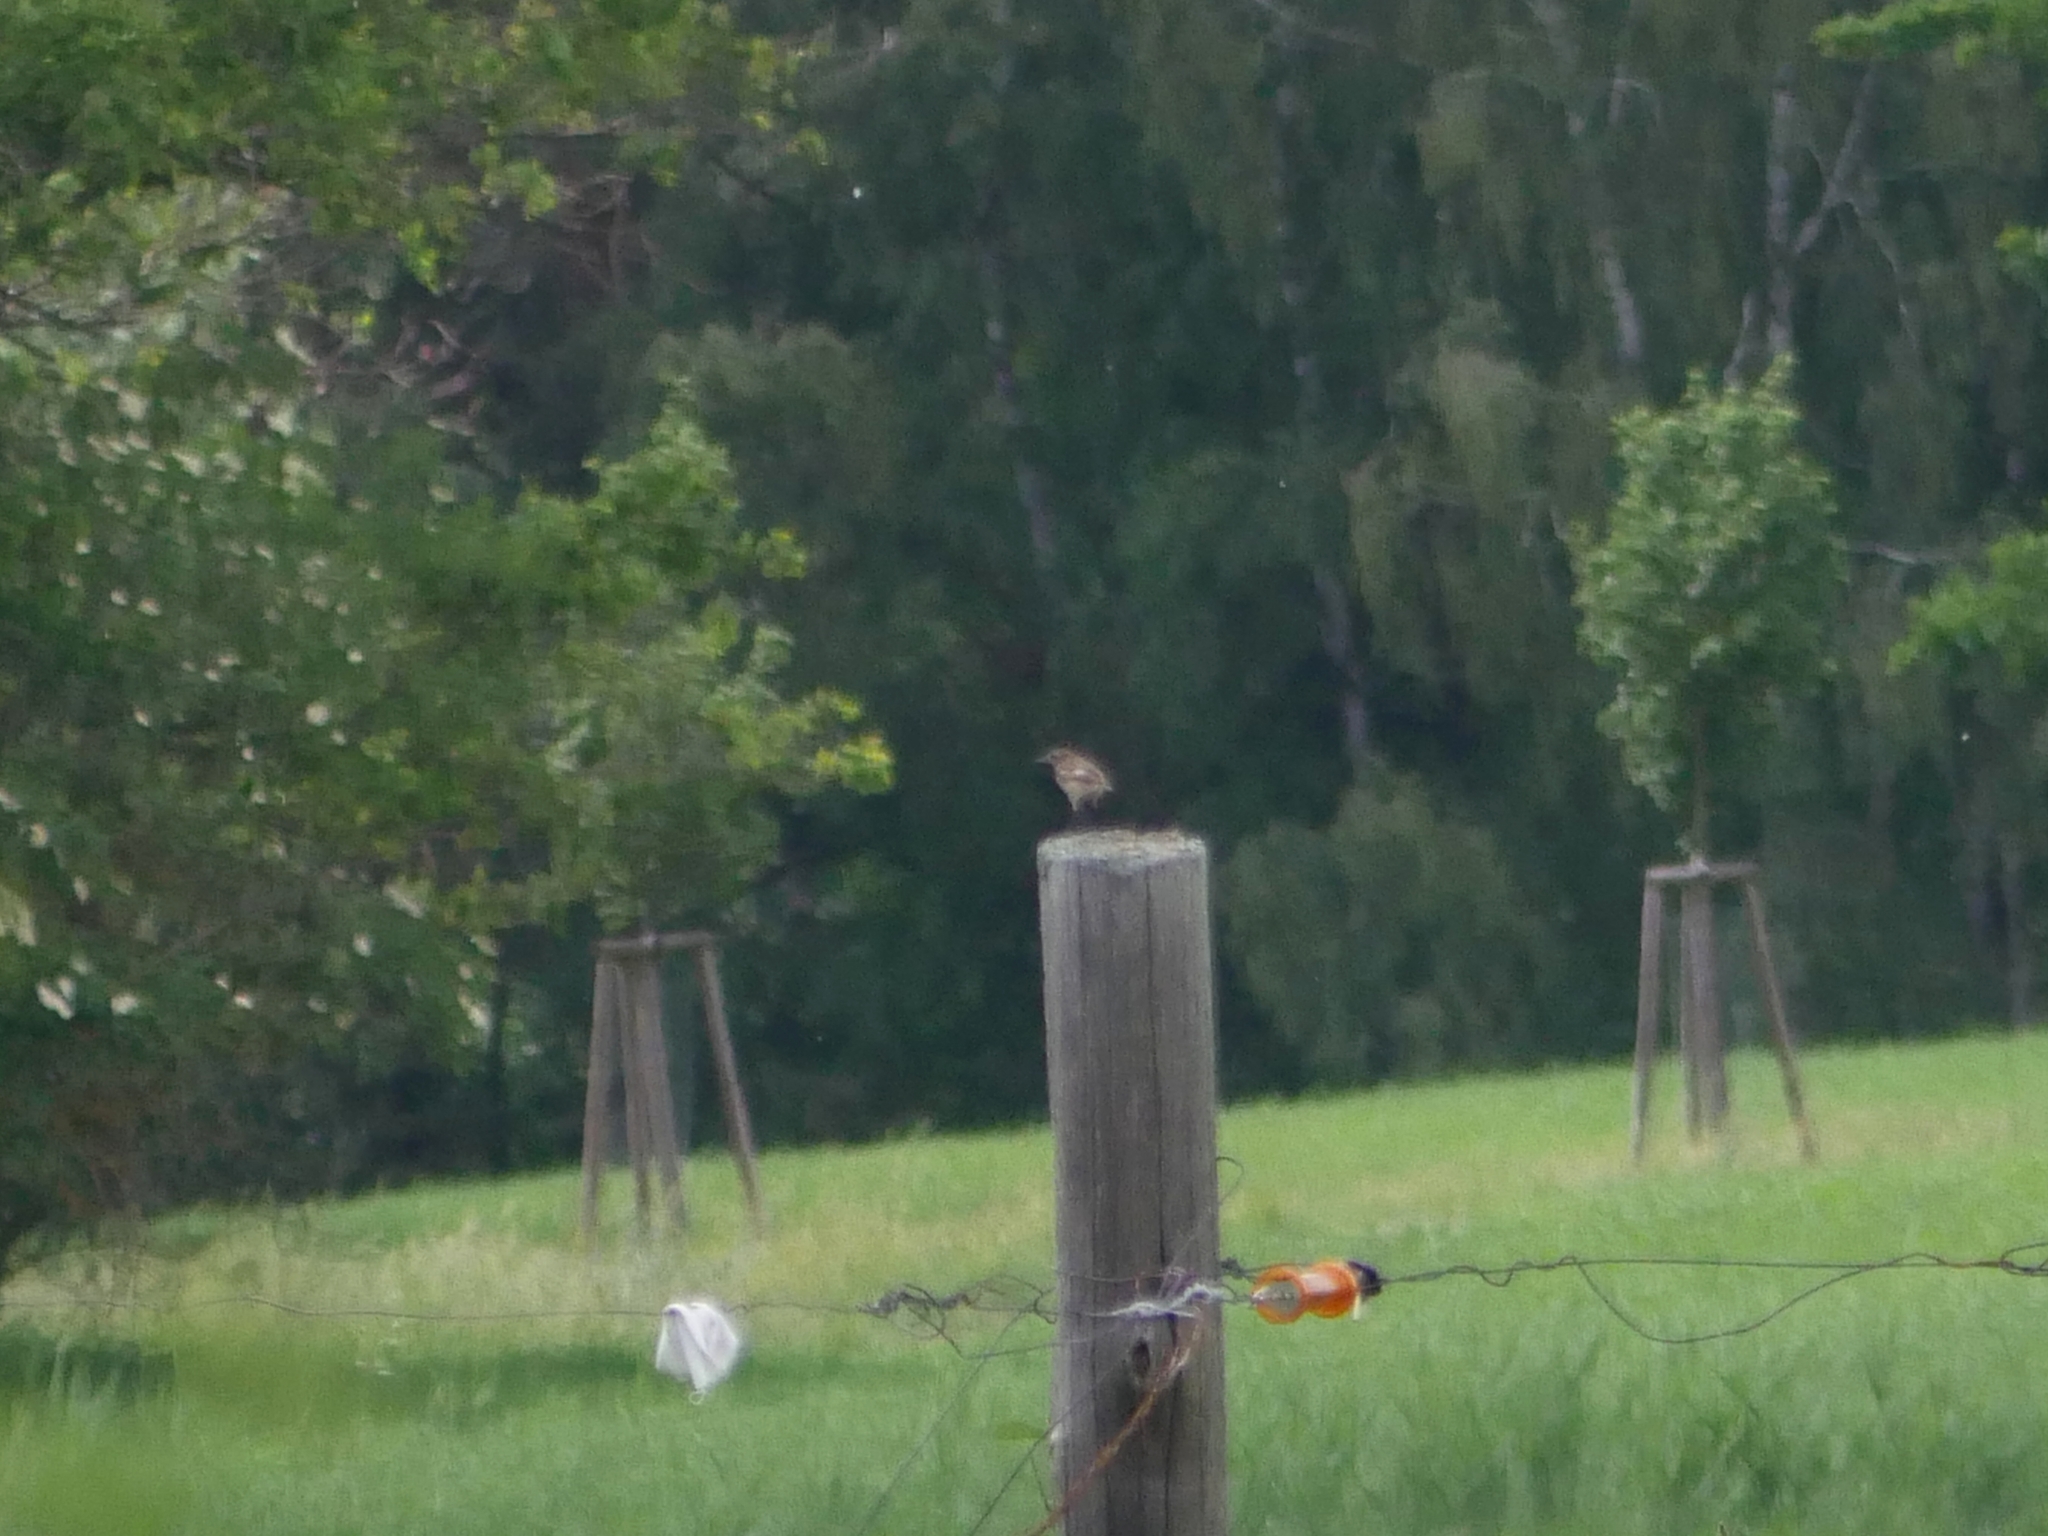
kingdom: Animalia
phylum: Chordata
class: Aves
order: Passeriformes
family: Muscicapidae
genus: Saxicola
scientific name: Saxicola rubicola
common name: European stonechat
